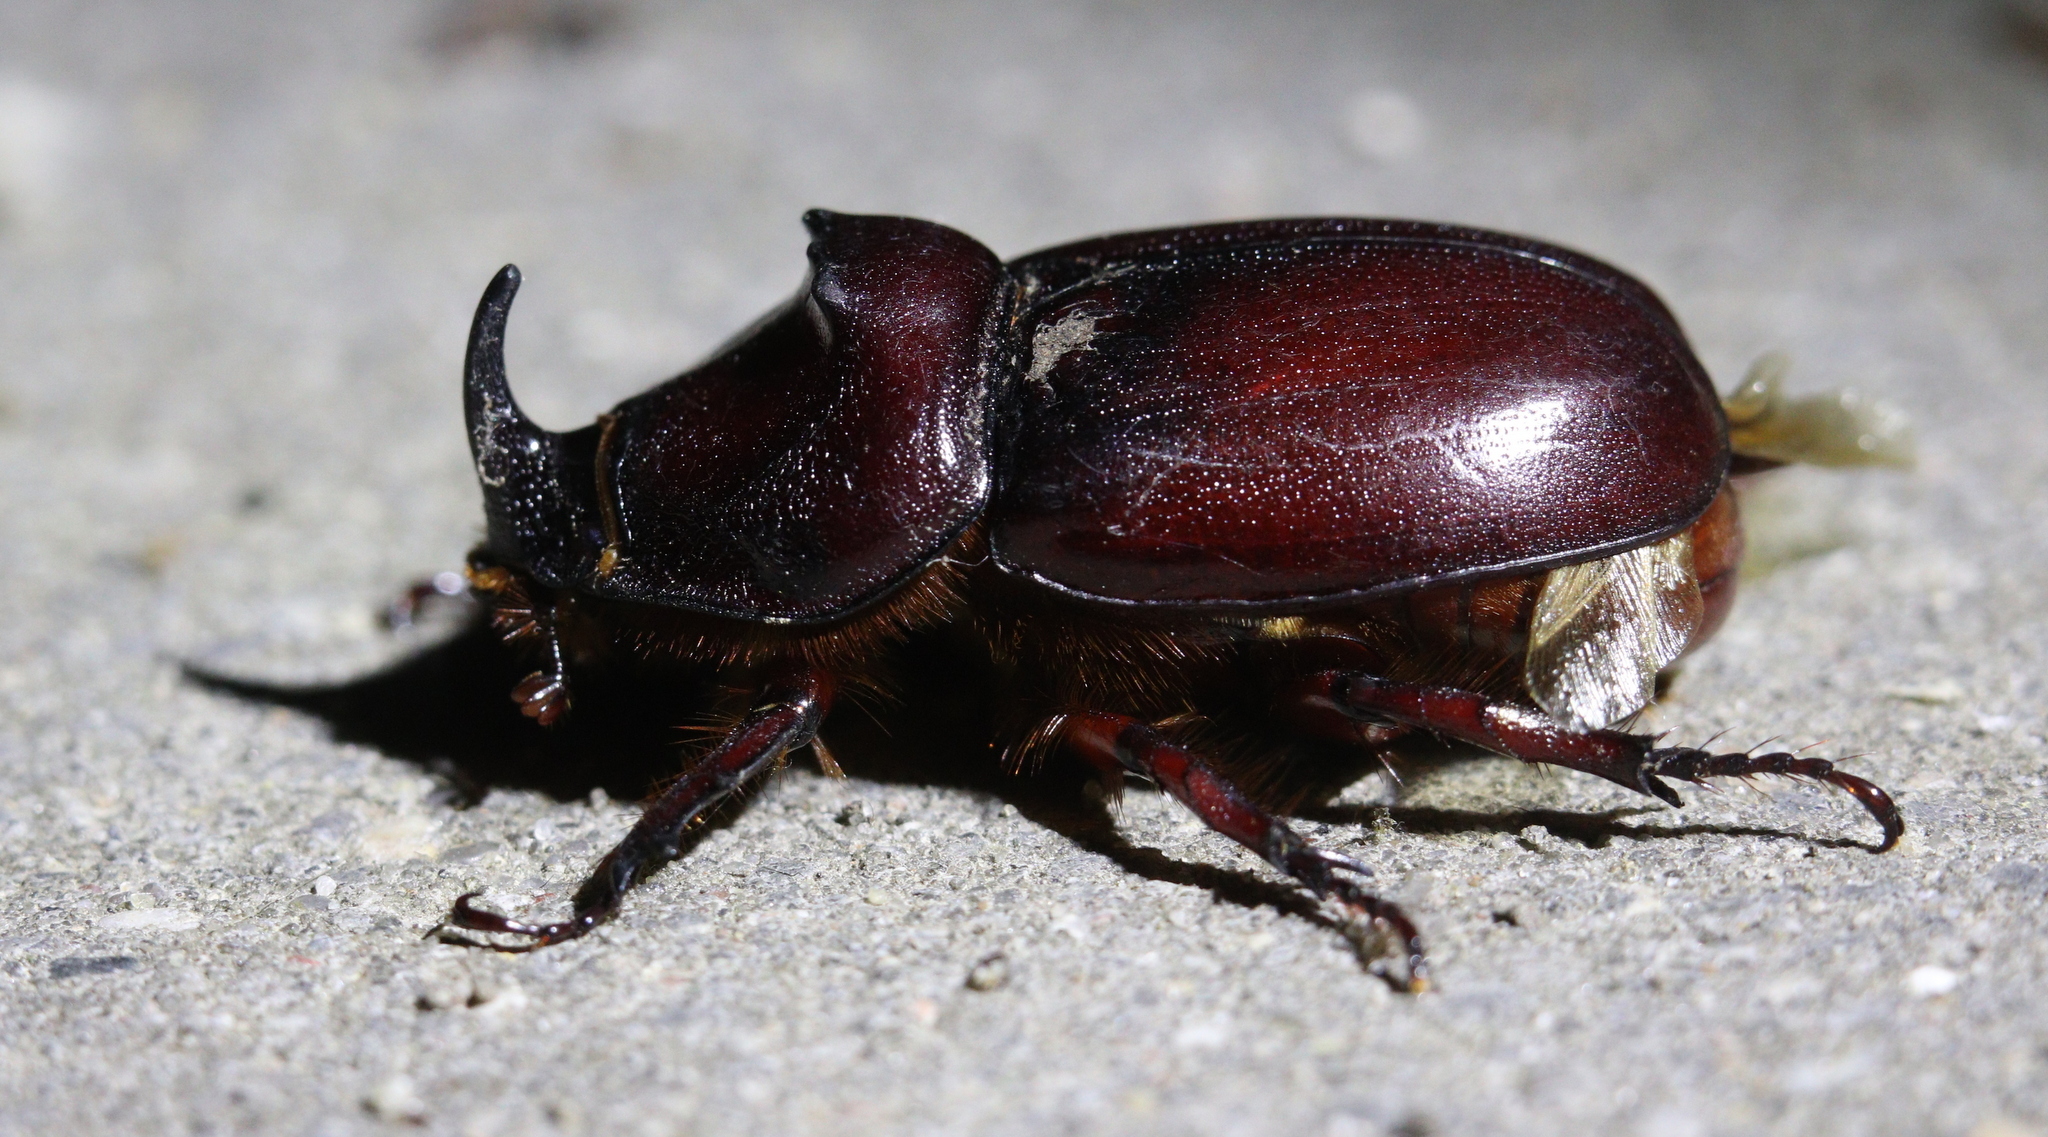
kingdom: Animalia
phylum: Arthropoda
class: Insecta
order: Coleoptera
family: Scarabaeidae
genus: Oryctes
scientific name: Oryctes nasicornis
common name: European rhinoceros beetle
